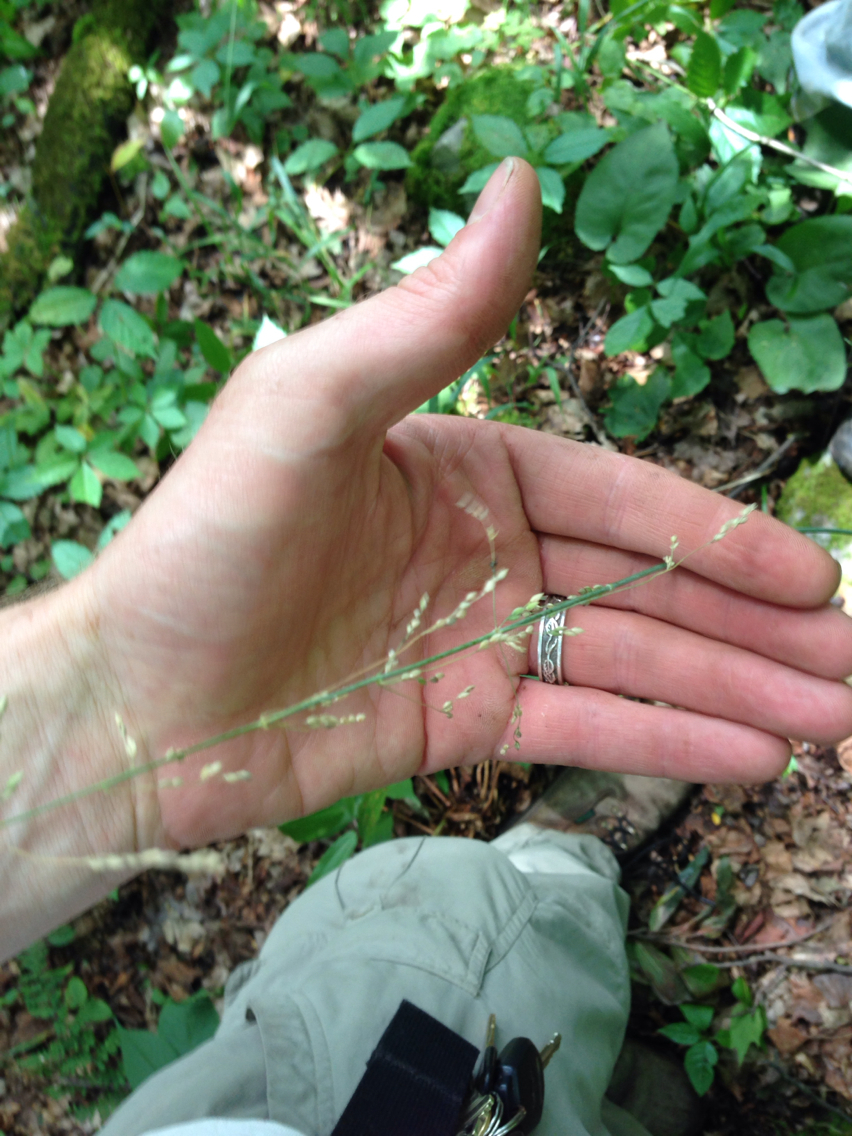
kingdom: Plantae
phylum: Tracheophyta
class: Liliopsida
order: Poales
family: Poaceae
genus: Milium
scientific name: Milium effusum
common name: Wood millet
